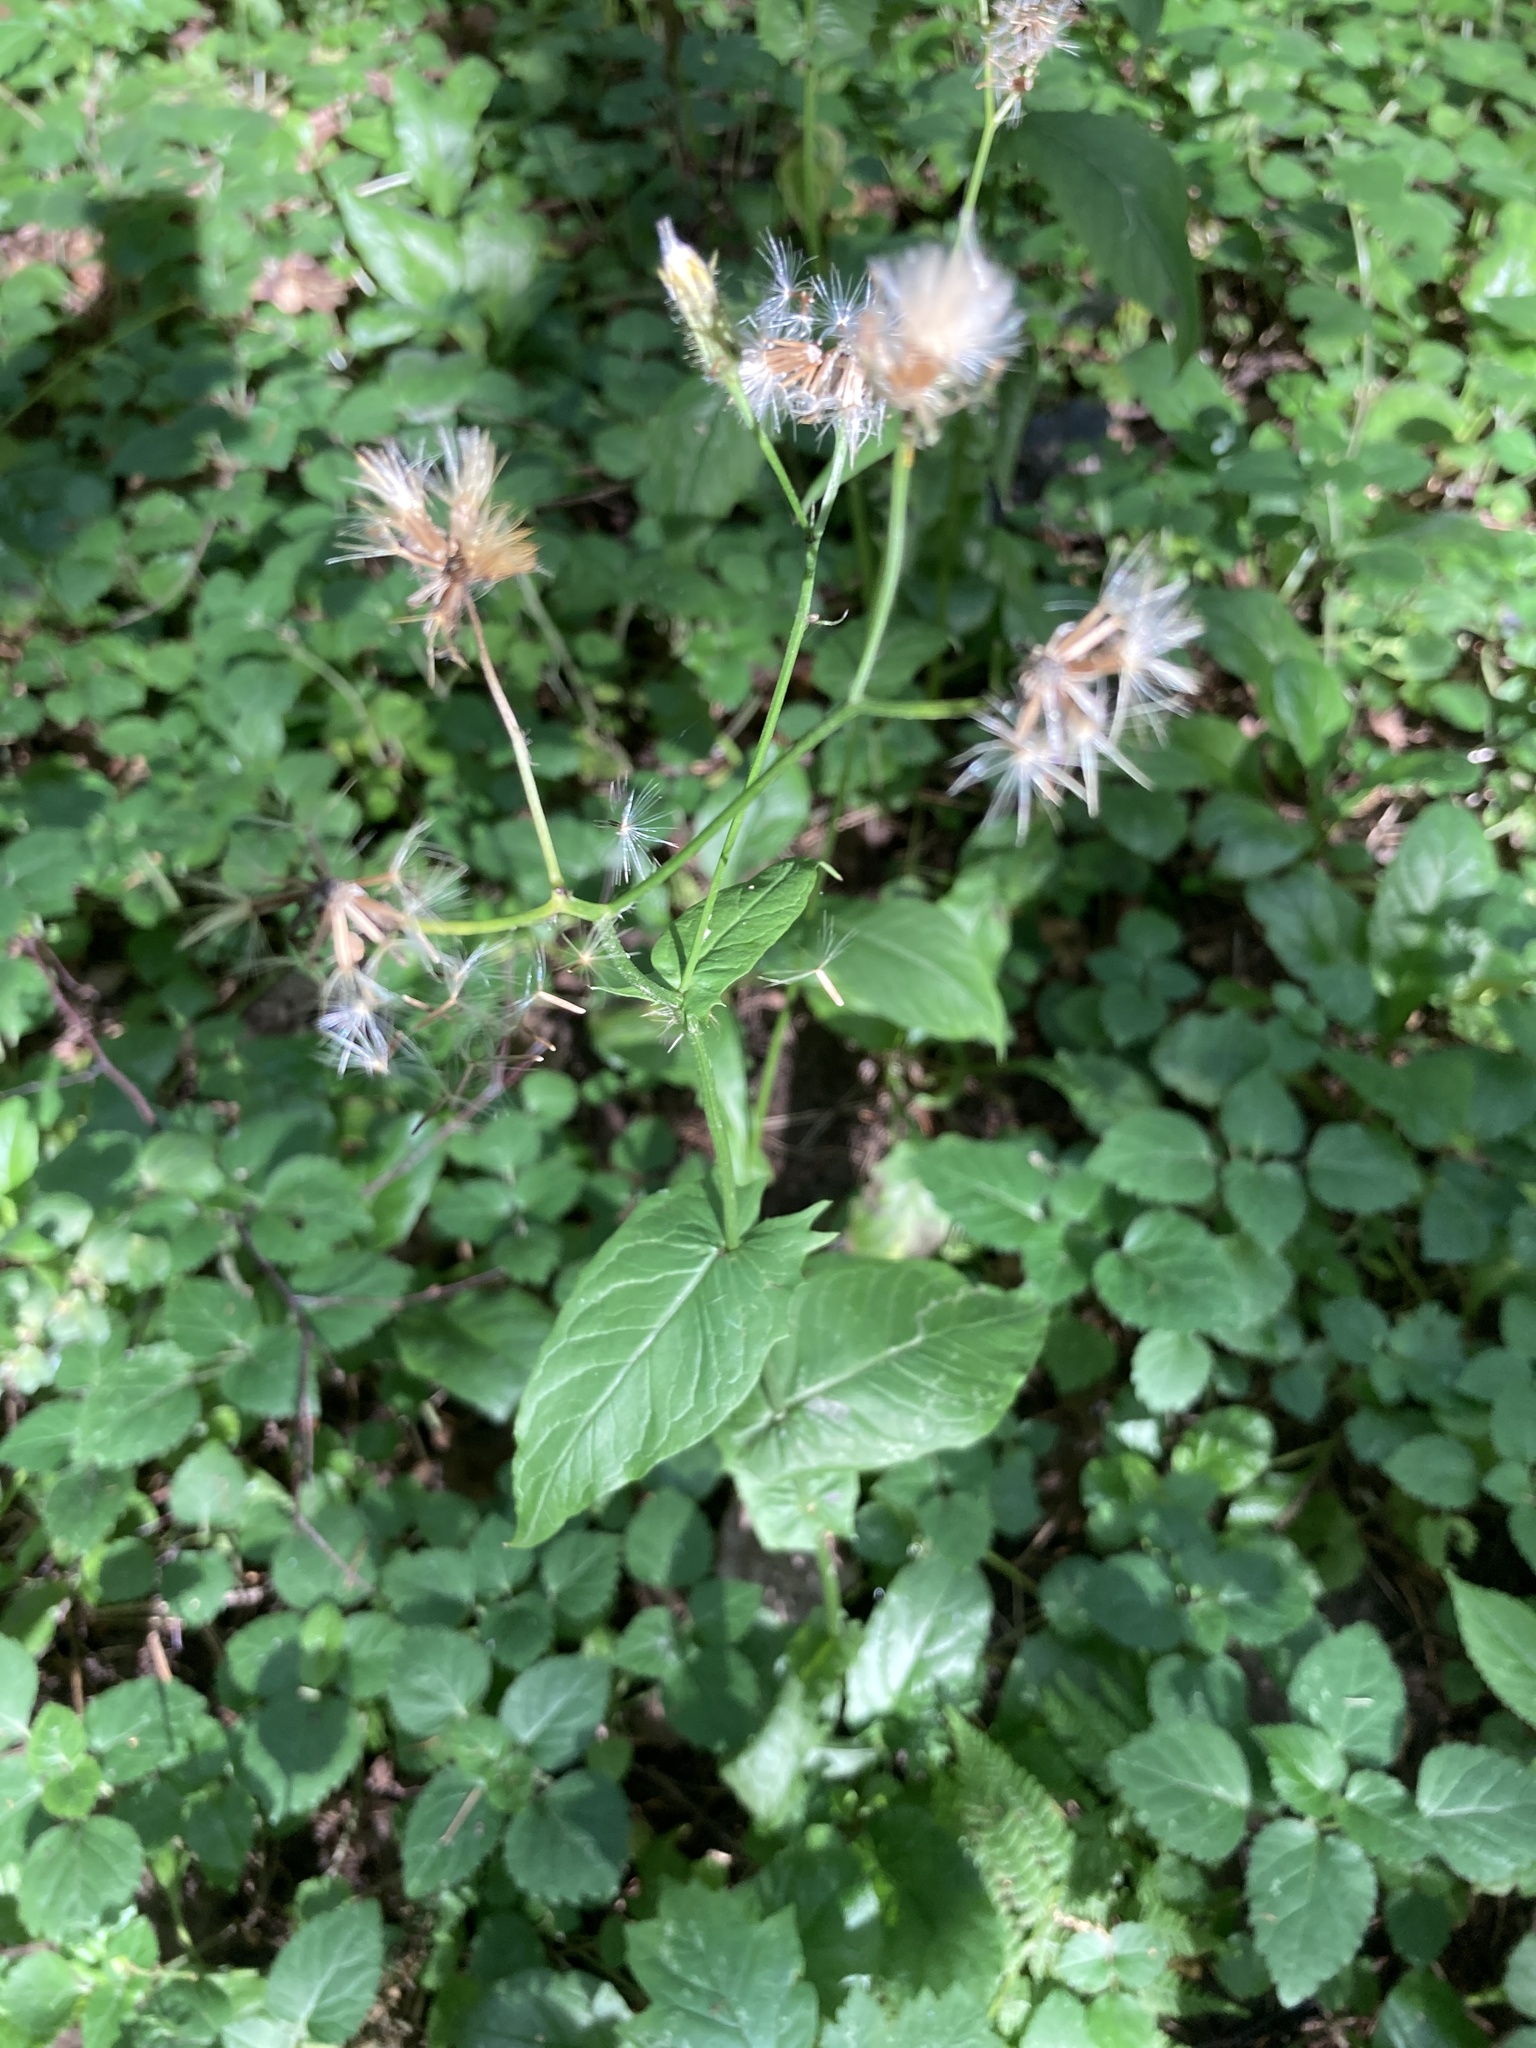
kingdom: Plantae
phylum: Tracheophyta
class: Magnoliopsida
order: Asterales
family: Asteraceae
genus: Crepis
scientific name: Crepis paludosa
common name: Marsh hawk's-beard
